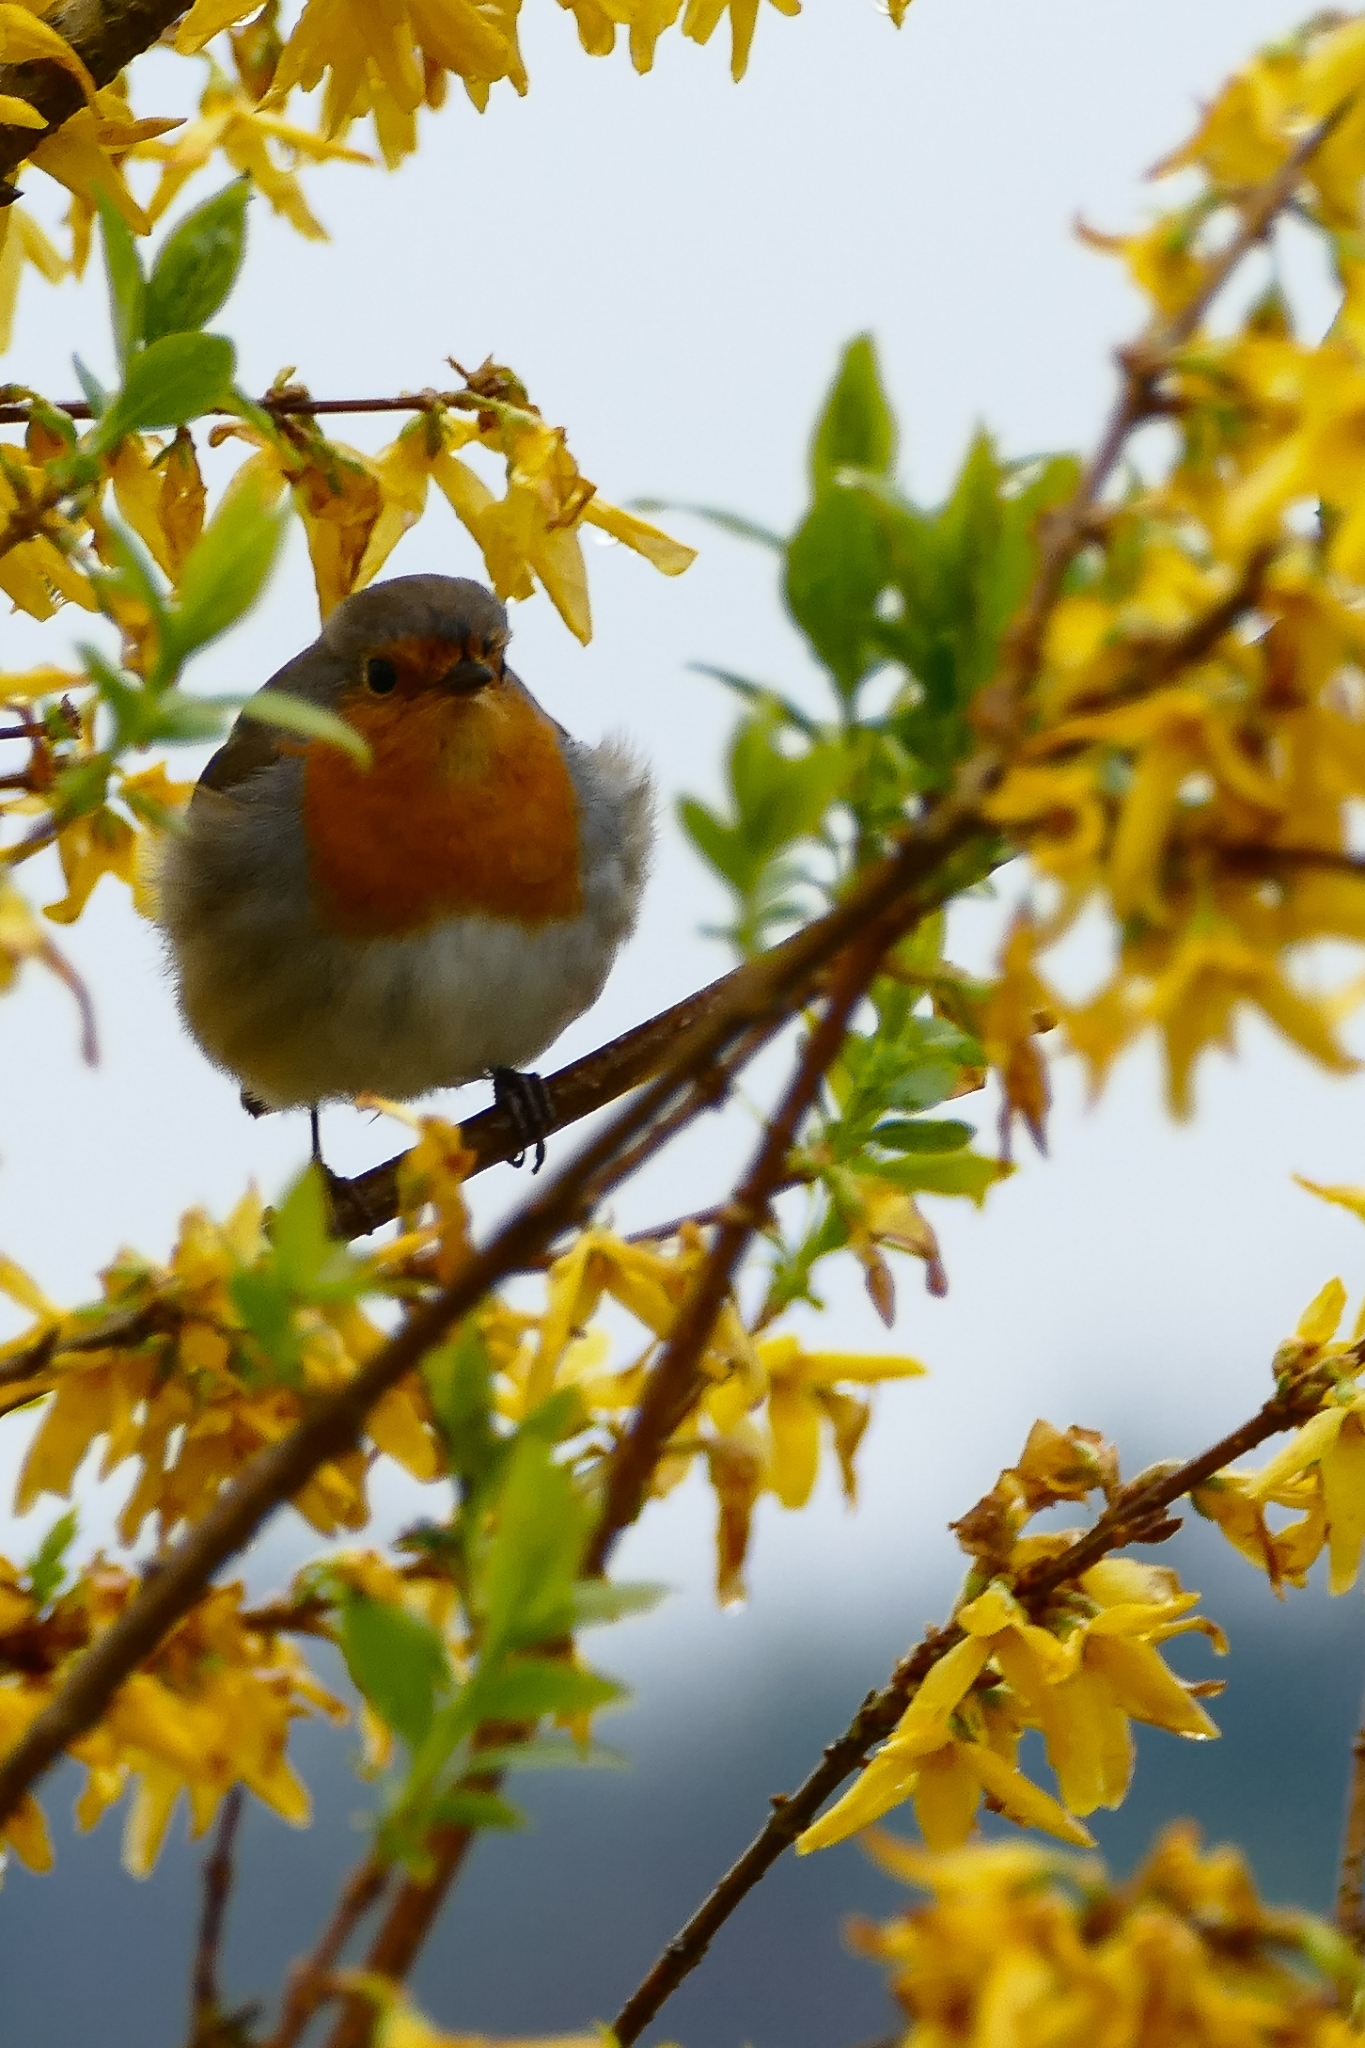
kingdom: Animalia
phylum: Chordata
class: Aves
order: Passeriformes
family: Muscicapidae
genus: Erithacus
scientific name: Erithacus rubecula
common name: European robin
